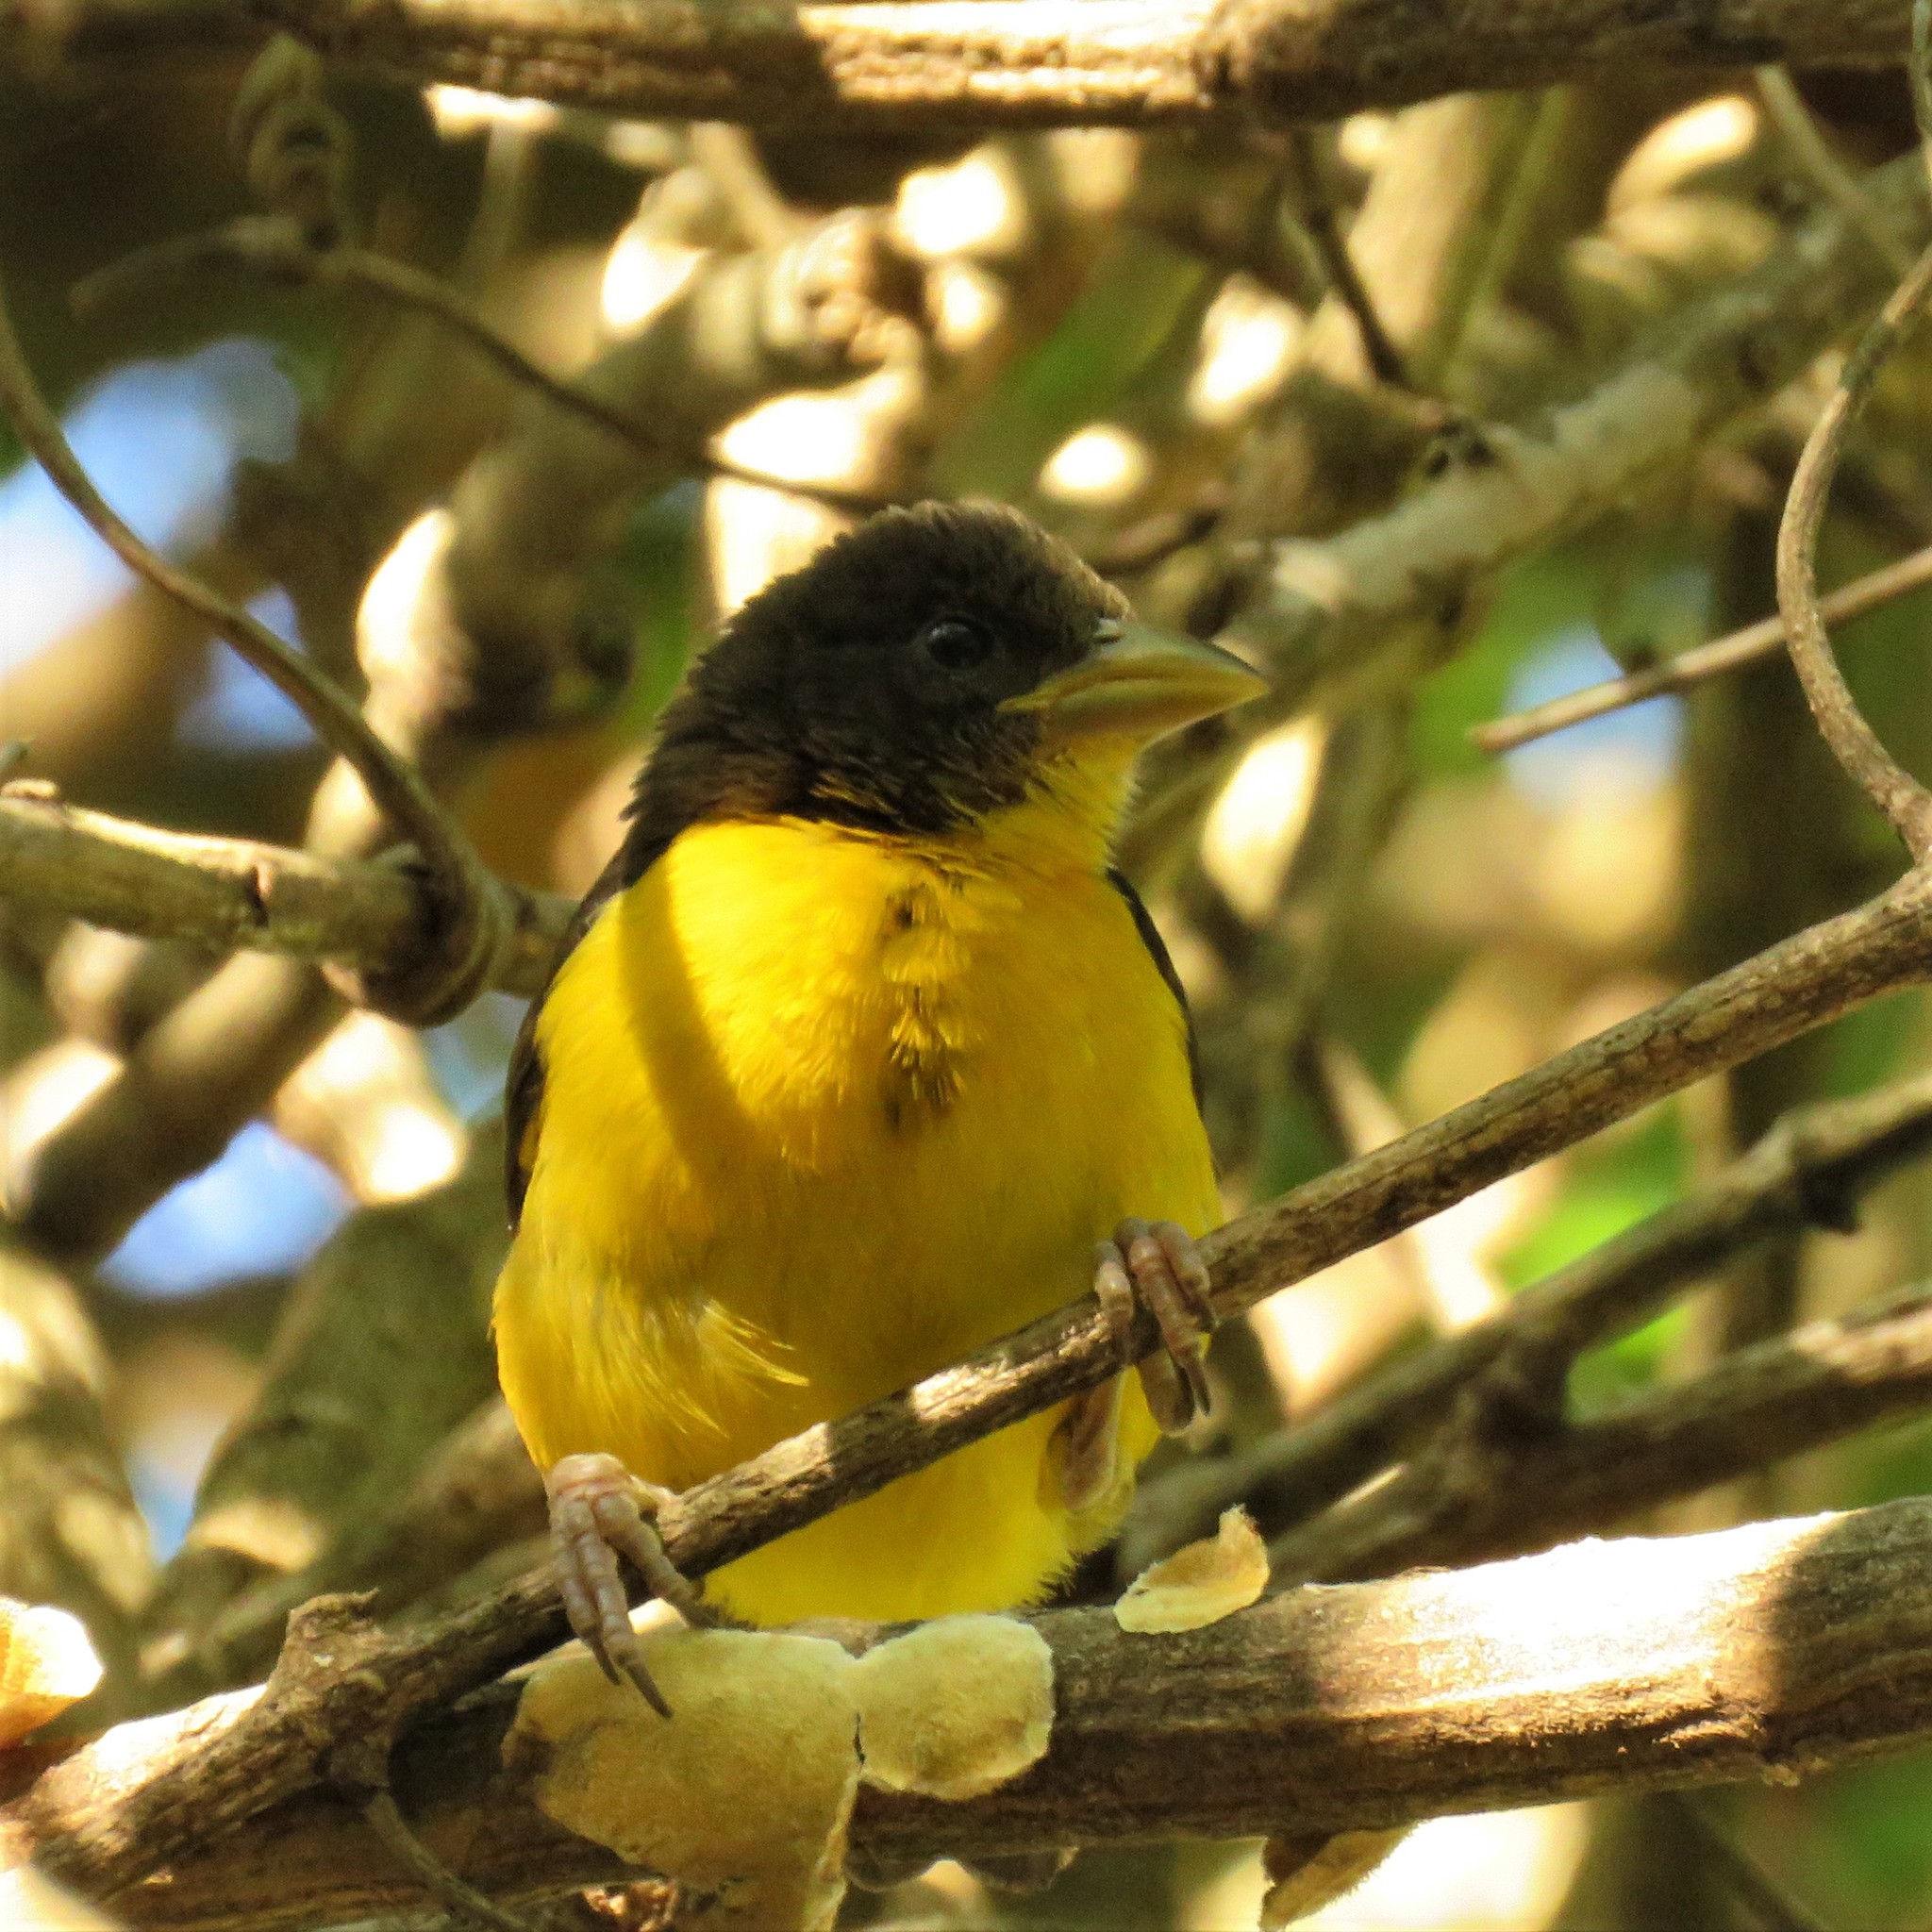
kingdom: Animalia
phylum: Chordata
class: Aves
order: Passeriformes
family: Ploceidae
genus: Ploceus
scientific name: Ploceus bicolor
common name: Dark-backed weaver
